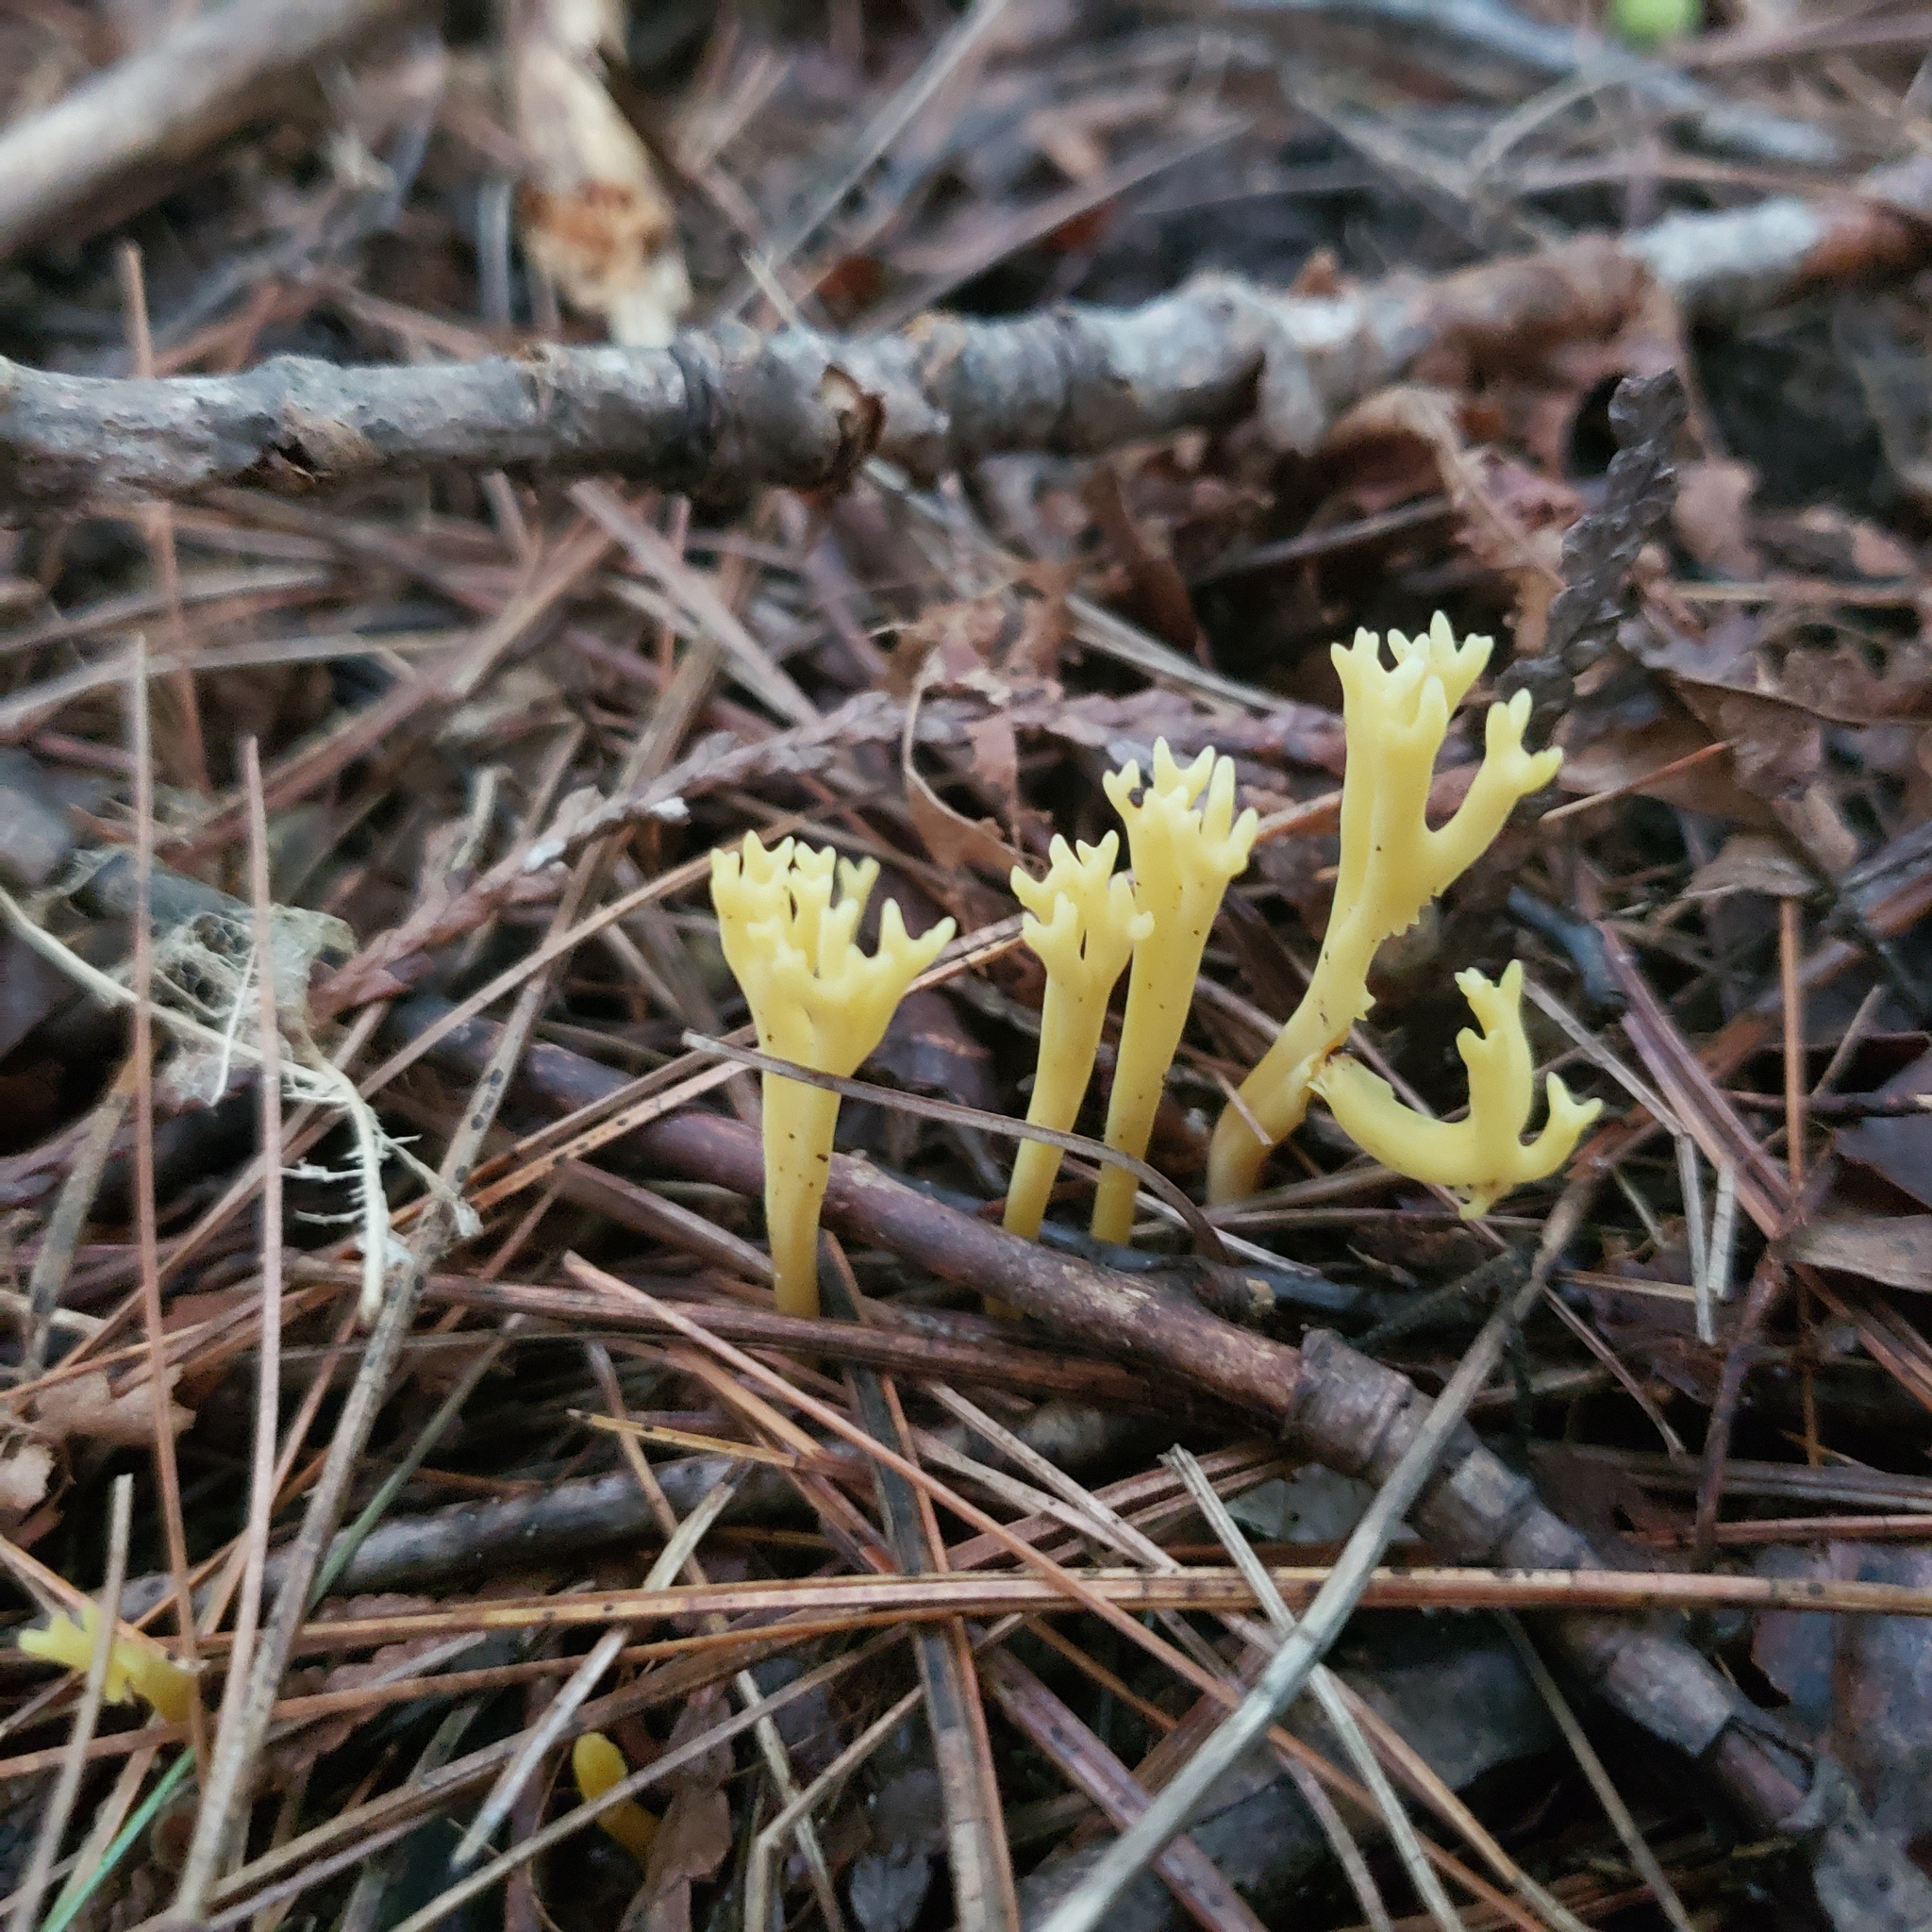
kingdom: Fungi
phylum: Basidiomycota
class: Agaricomycetes
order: Agaricales
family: Clavariaceae
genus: Clavulinopsis
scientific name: Clavulinopsis corniculata
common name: Meadow coral
